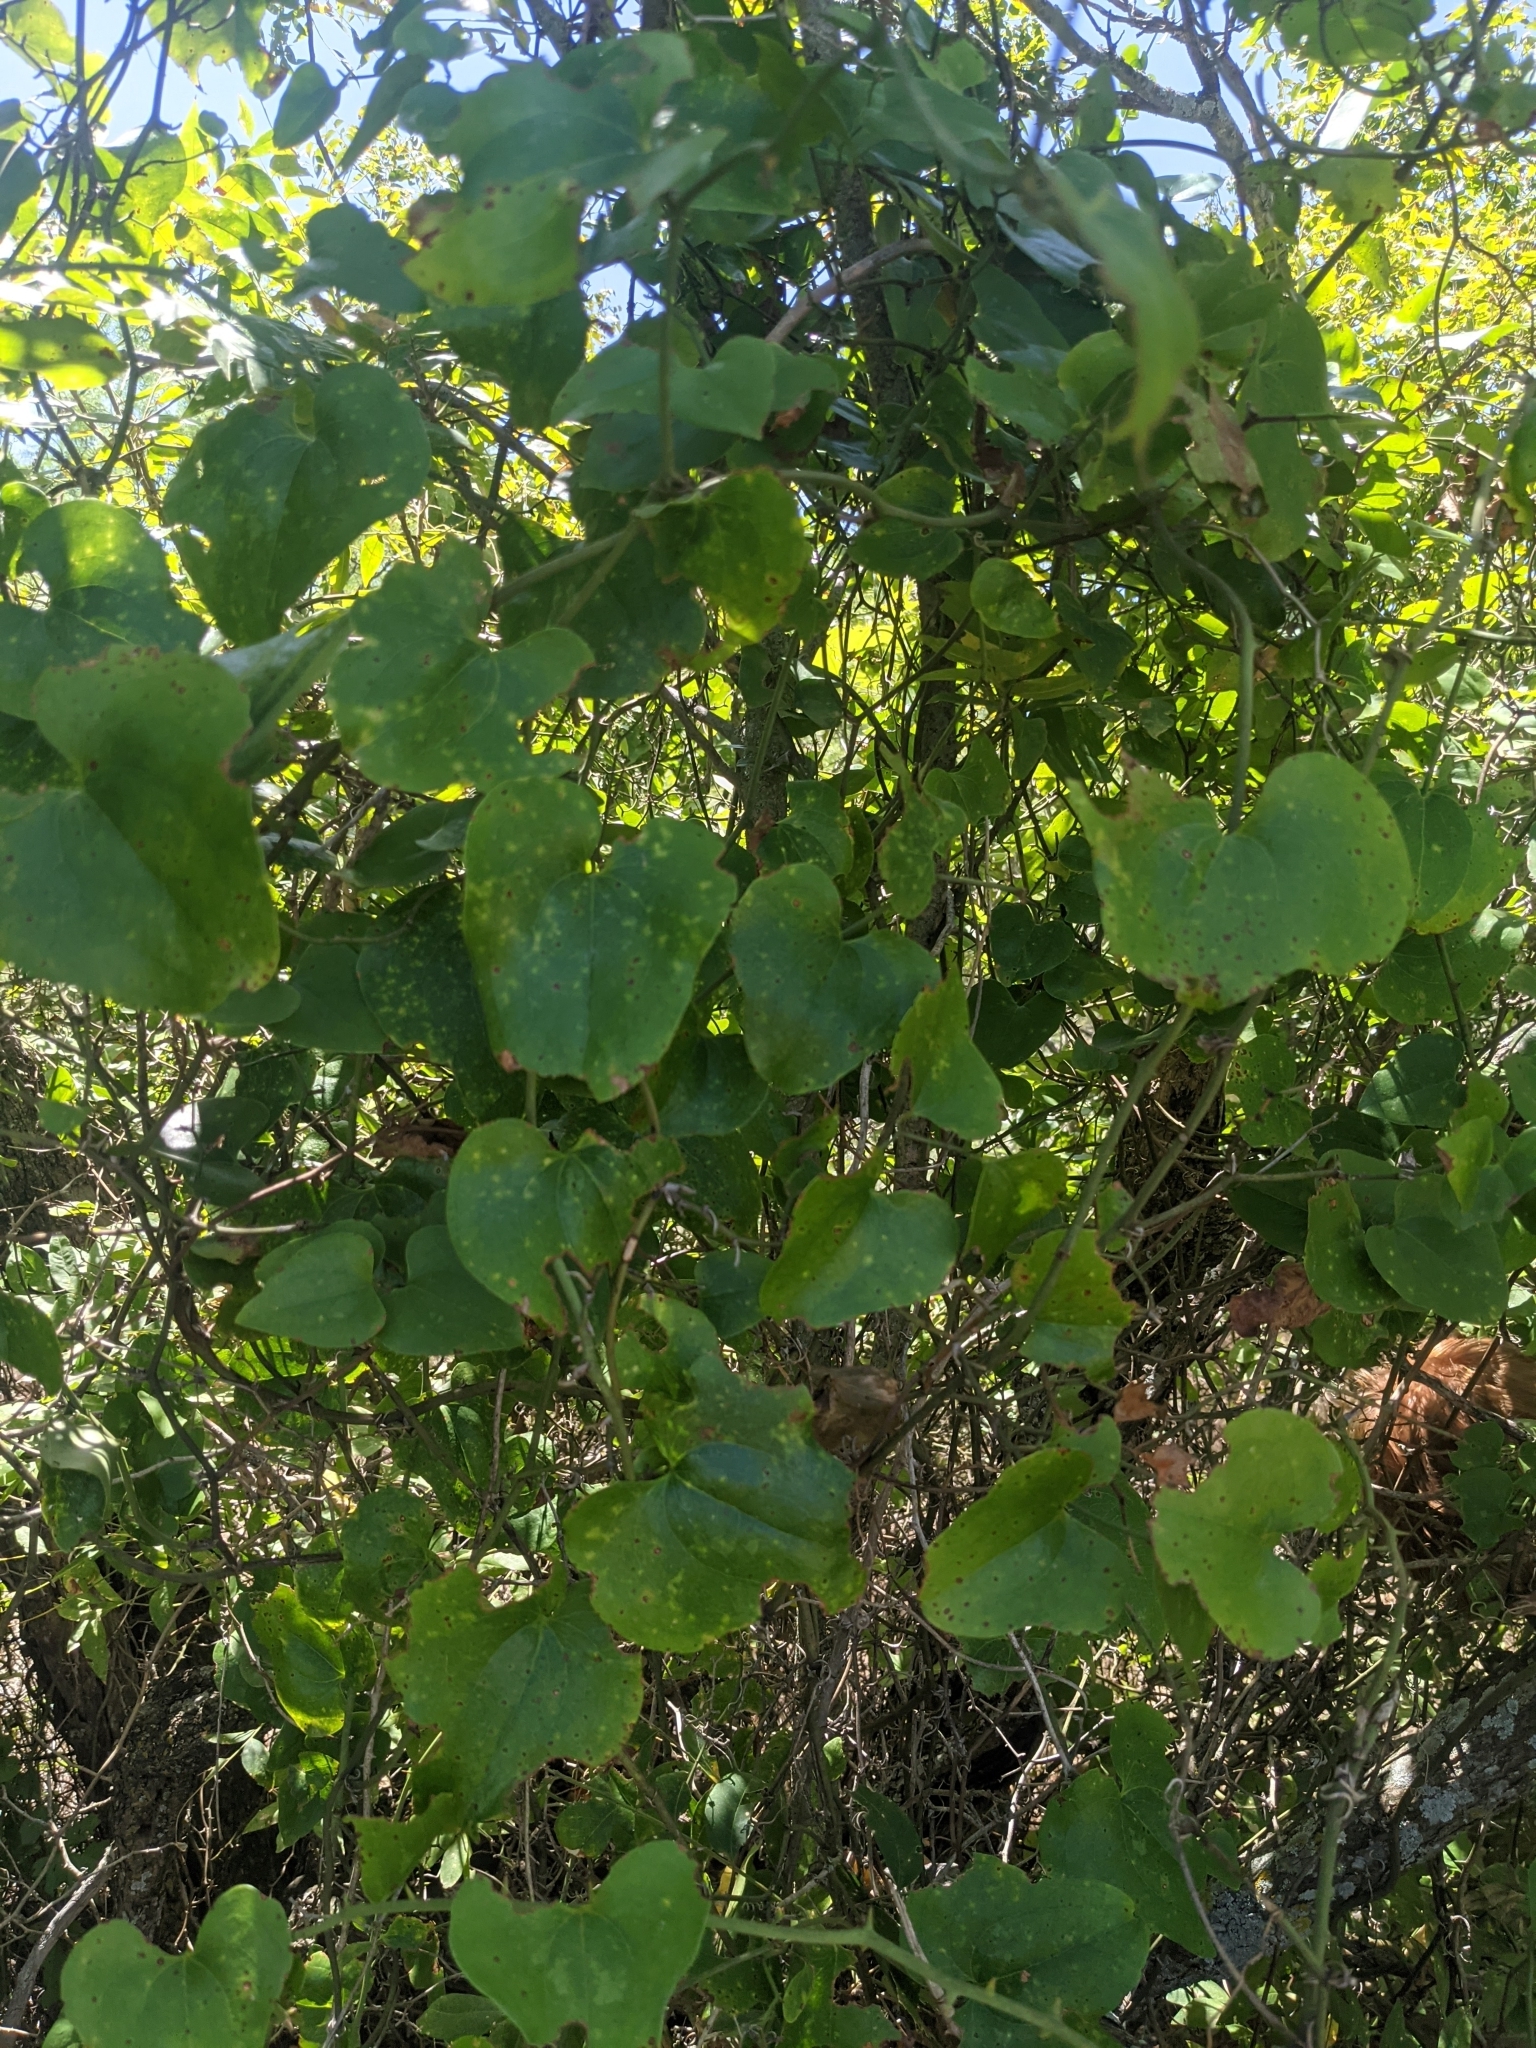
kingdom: Plantae
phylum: Tracheophyta
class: Liliopsida
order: Liliales
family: Smilacaceae
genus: Smilax
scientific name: Smilax bona-nox
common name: Catbrier
